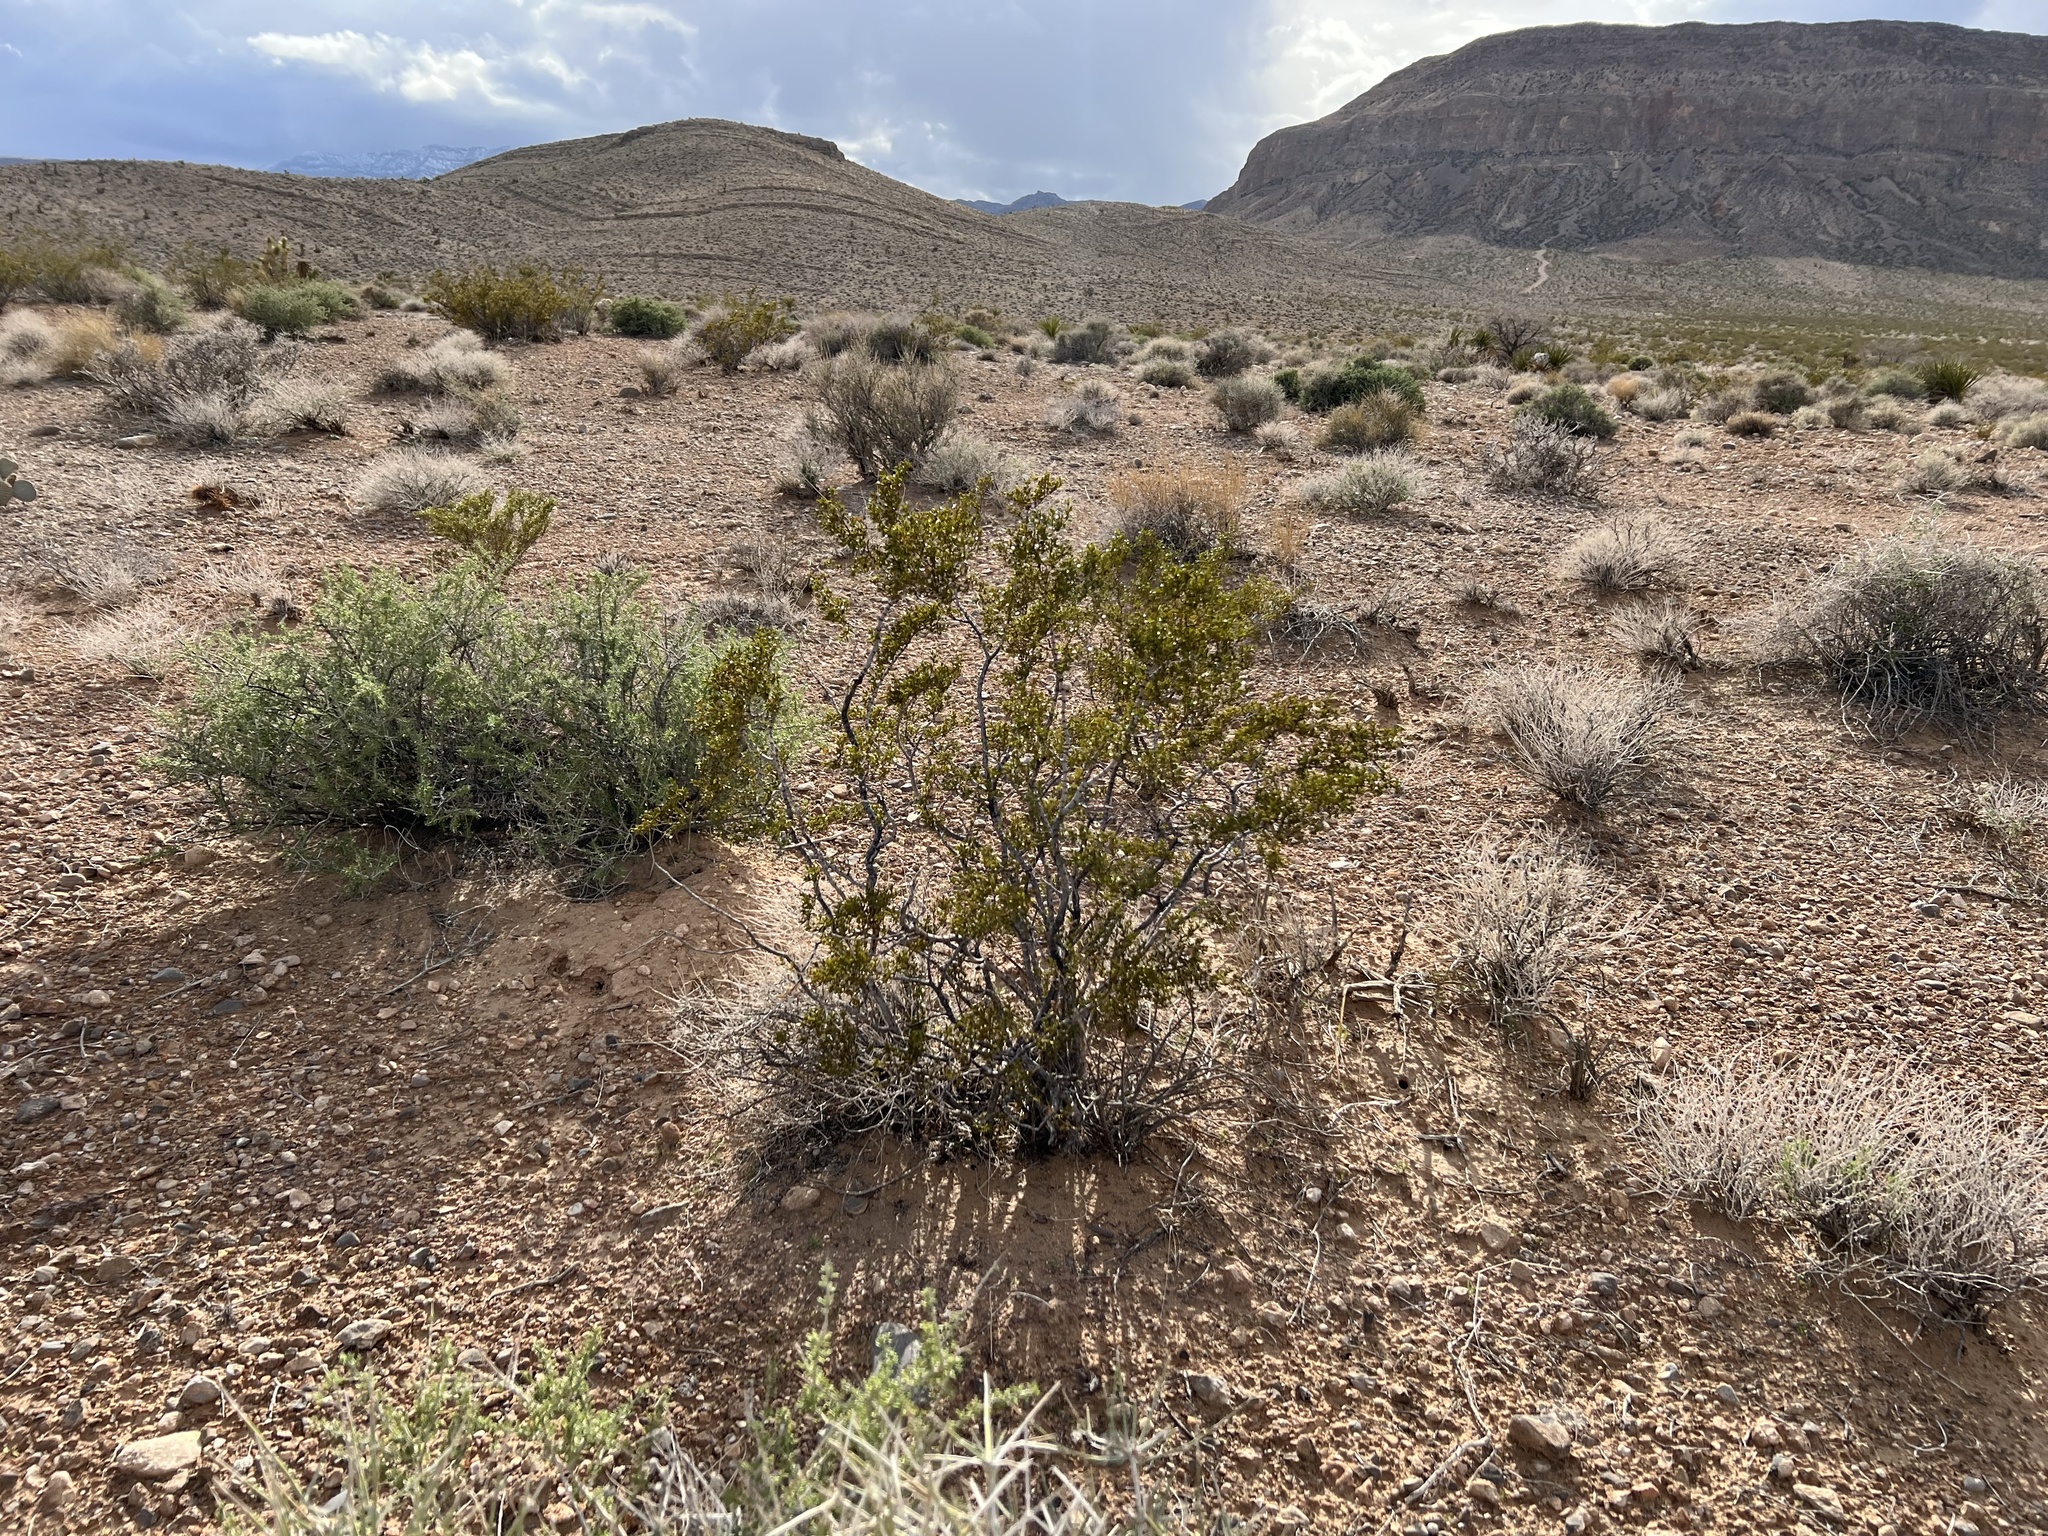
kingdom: Plantae
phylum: Tracheophyta
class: Magnoliopsida
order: Zygophyllales
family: Zygophyllaceae
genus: Larrea
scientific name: Larrea tridentata
